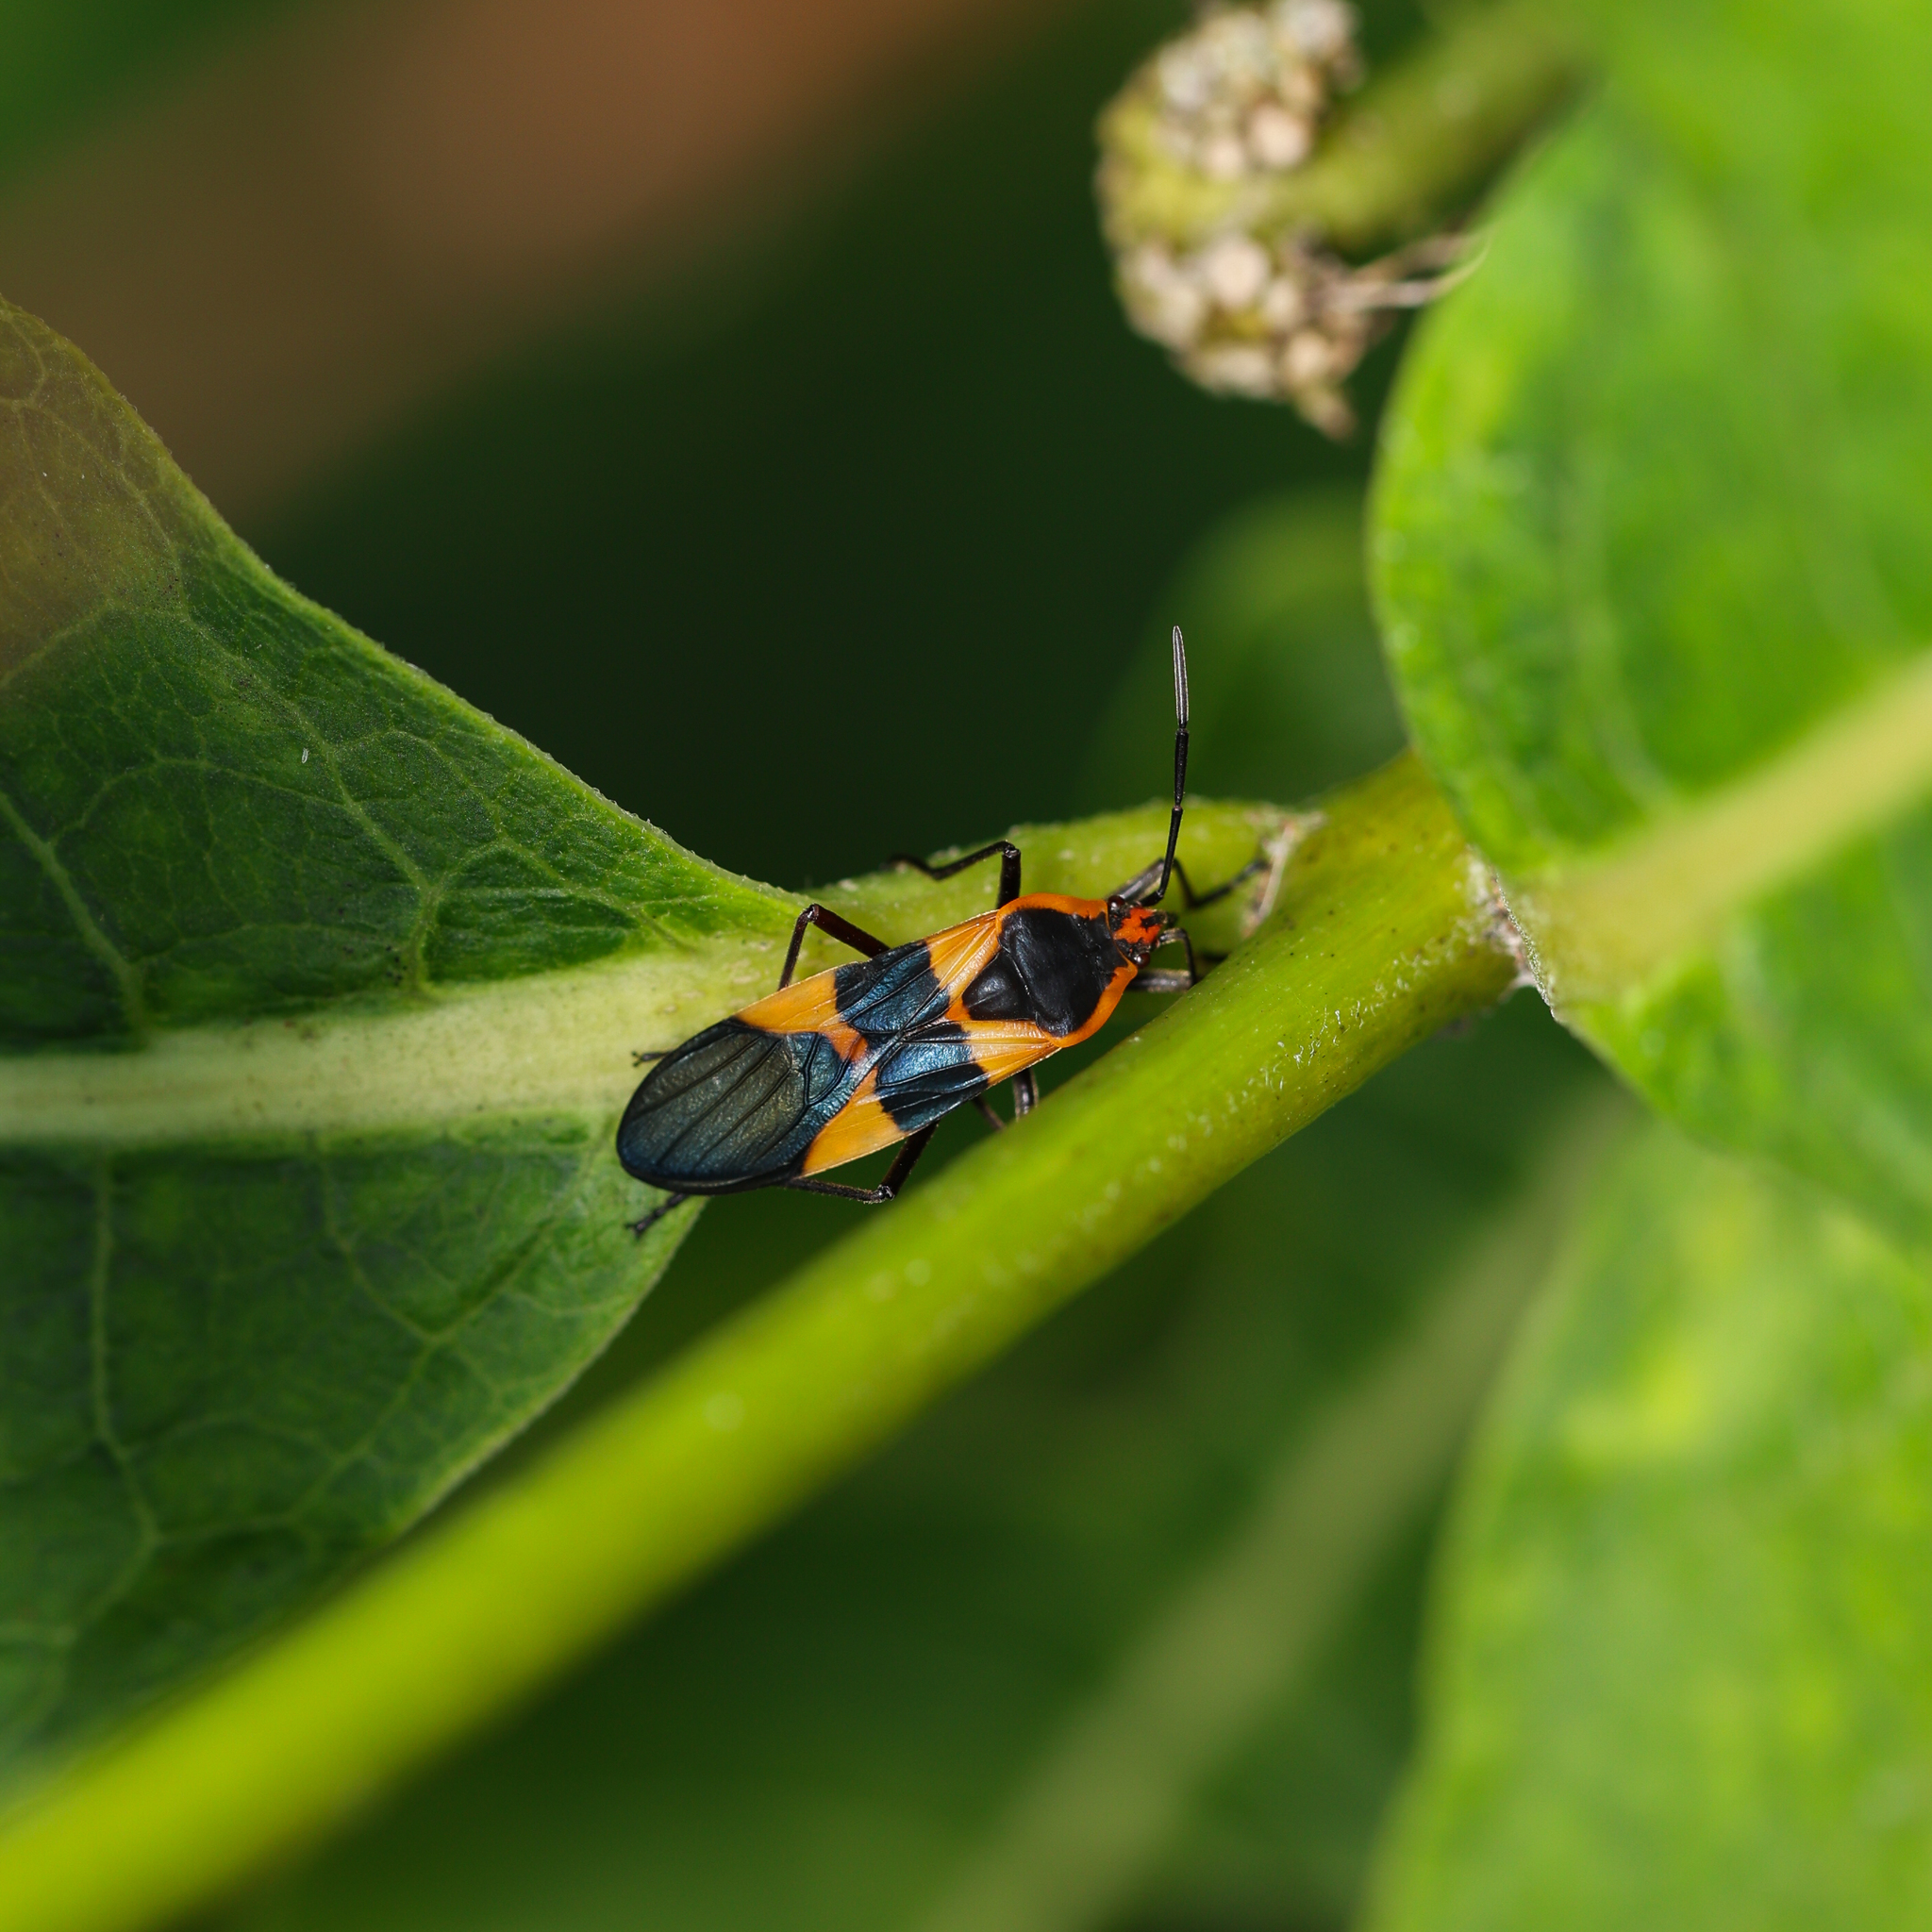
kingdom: Animalia
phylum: Arthropoda
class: Insecta
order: Hemiptera
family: Lygaeidae
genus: Oncopeltus
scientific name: Oncopeltus fasciatus
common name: Large milkweed bug
